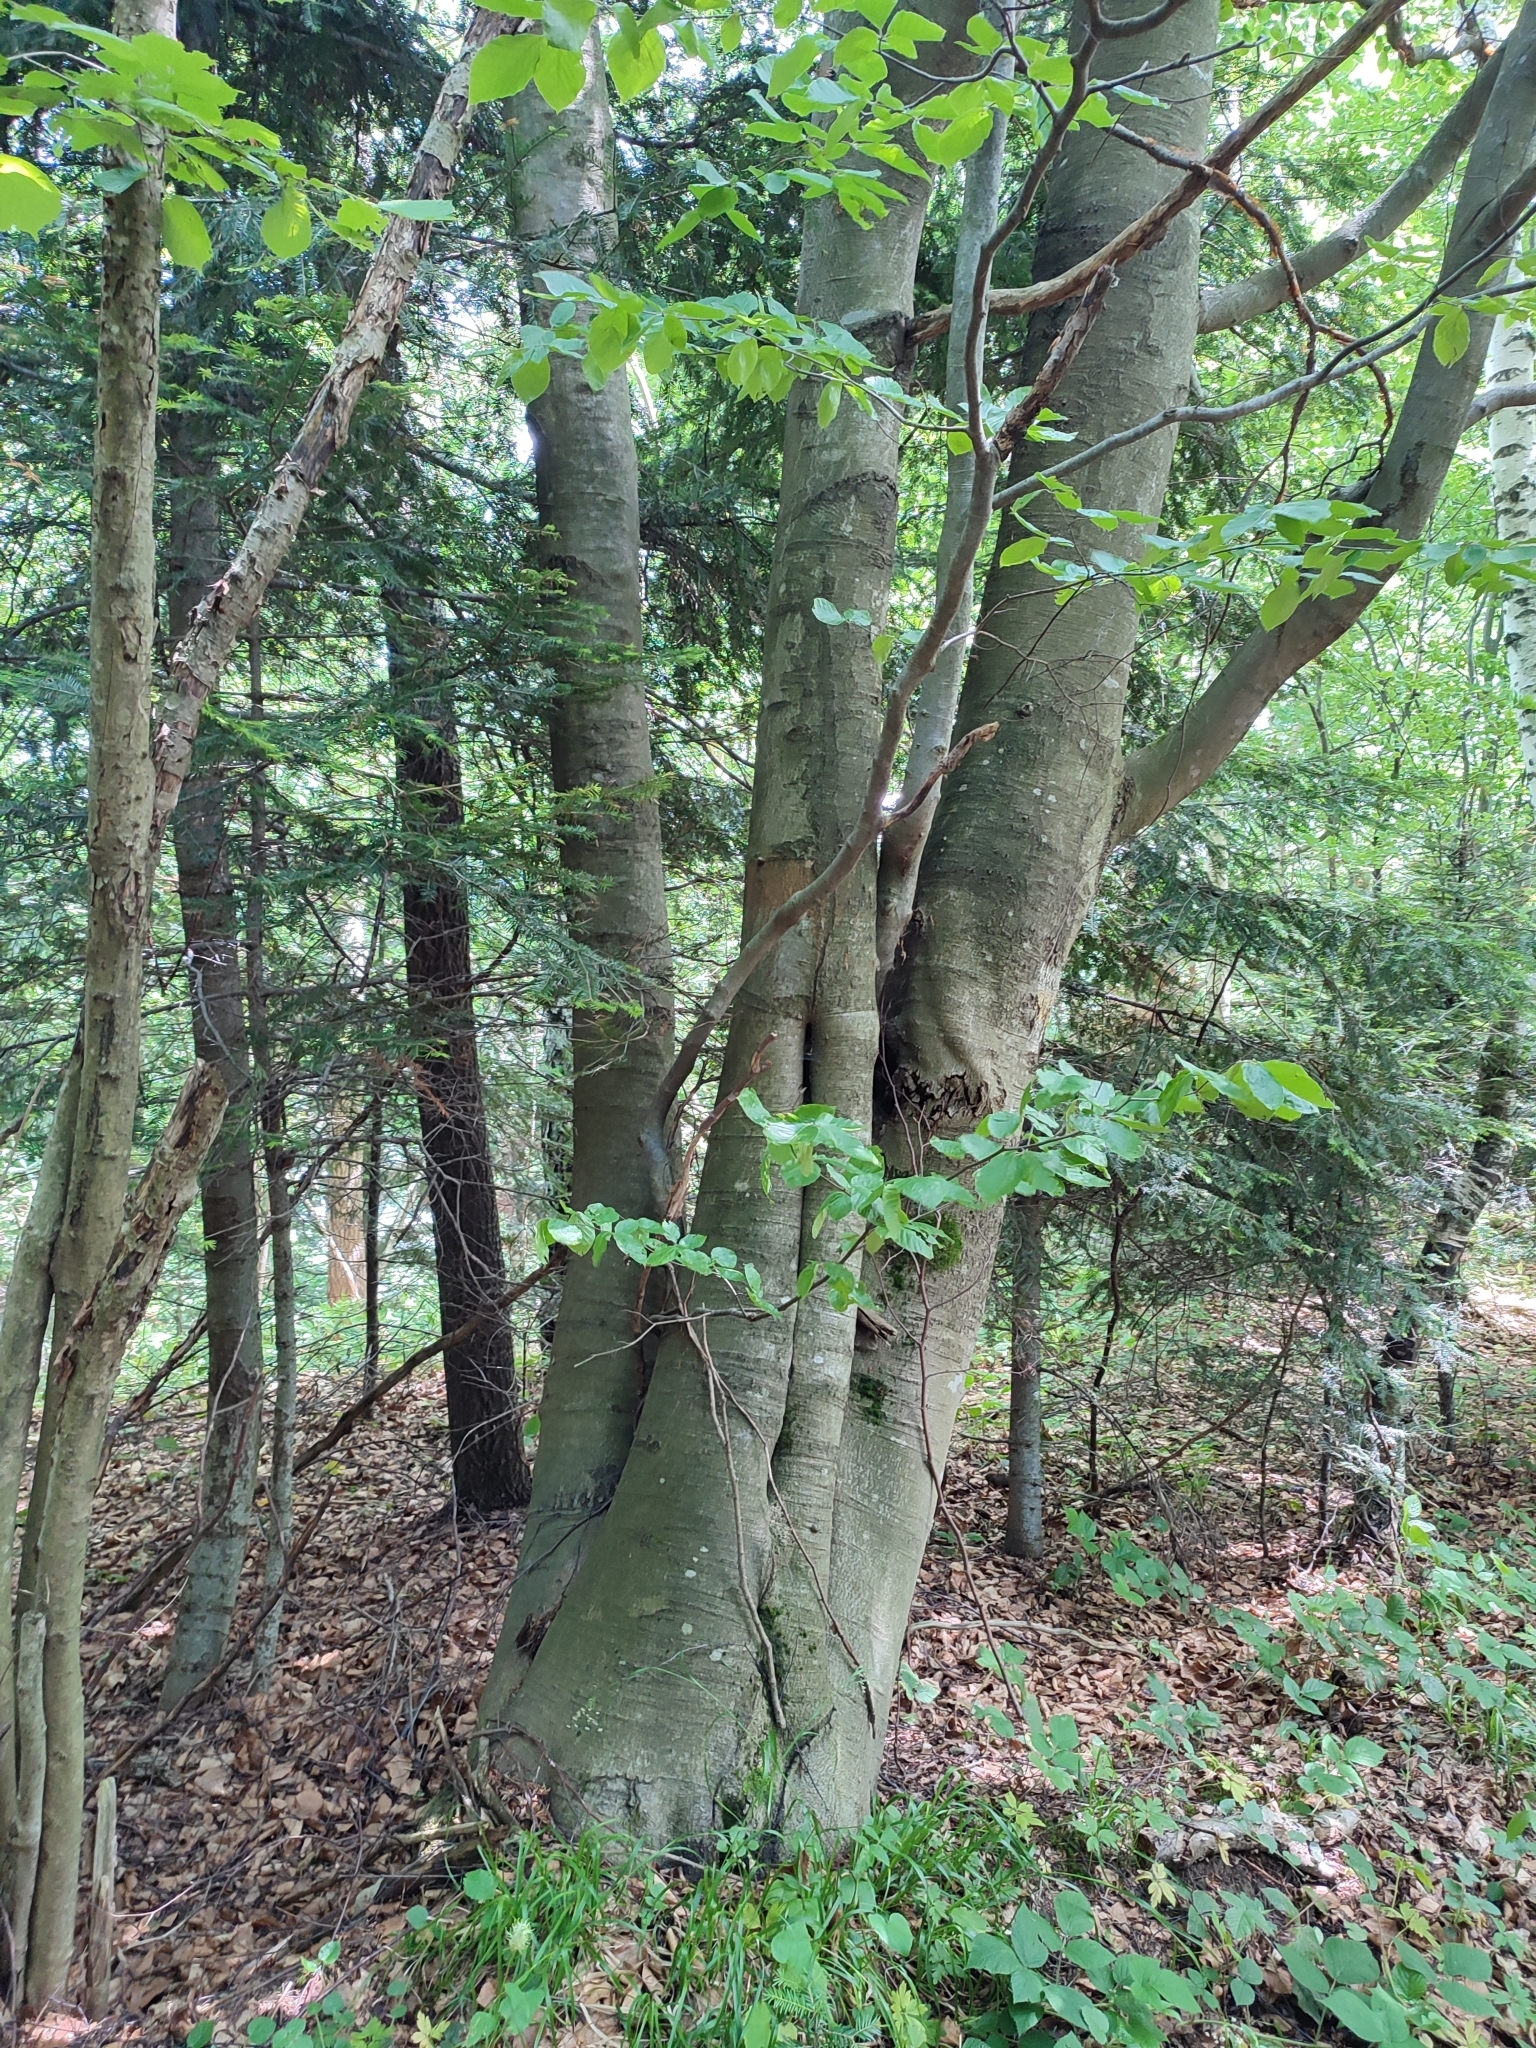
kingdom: Plantae
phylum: Tracheophyta
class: Magnoliopsida
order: Fagales
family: Fagaceae
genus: Fagus
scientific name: Fagus sylvatica
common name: Beech
